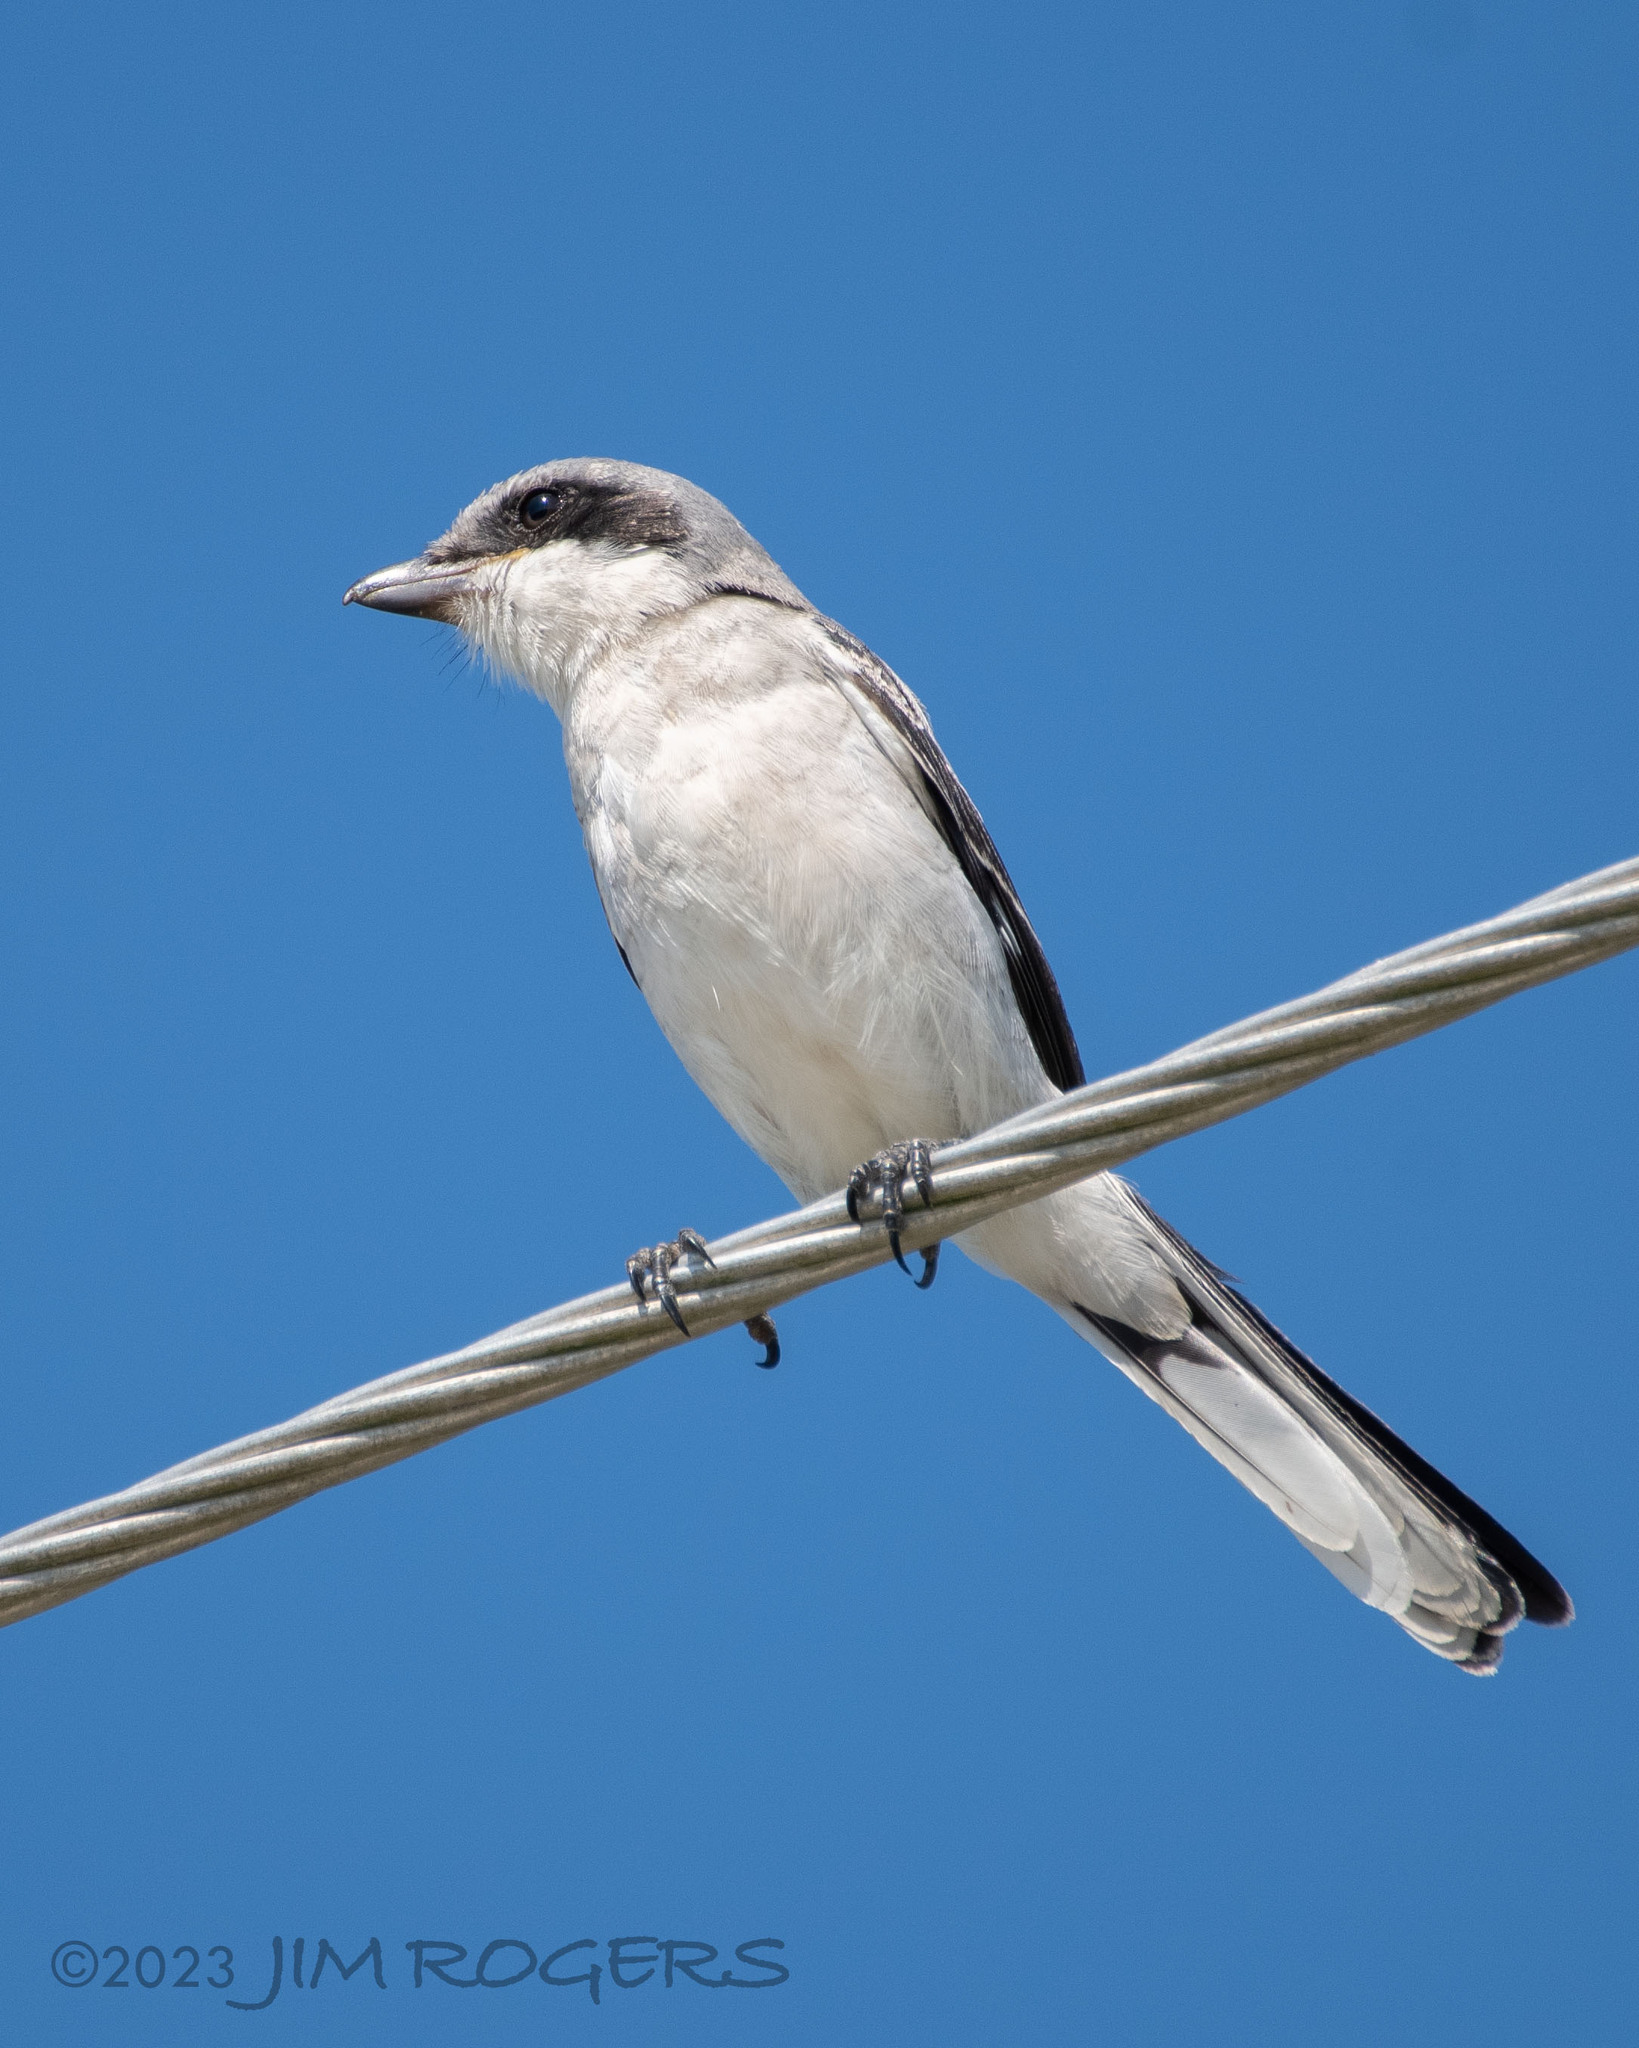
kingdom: Animalia
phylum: Chordata
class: Aves
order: Passeriformes
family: Laniidae
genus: Lanius
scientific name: Lanius ludovicianus
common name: Loggerhead shrike
